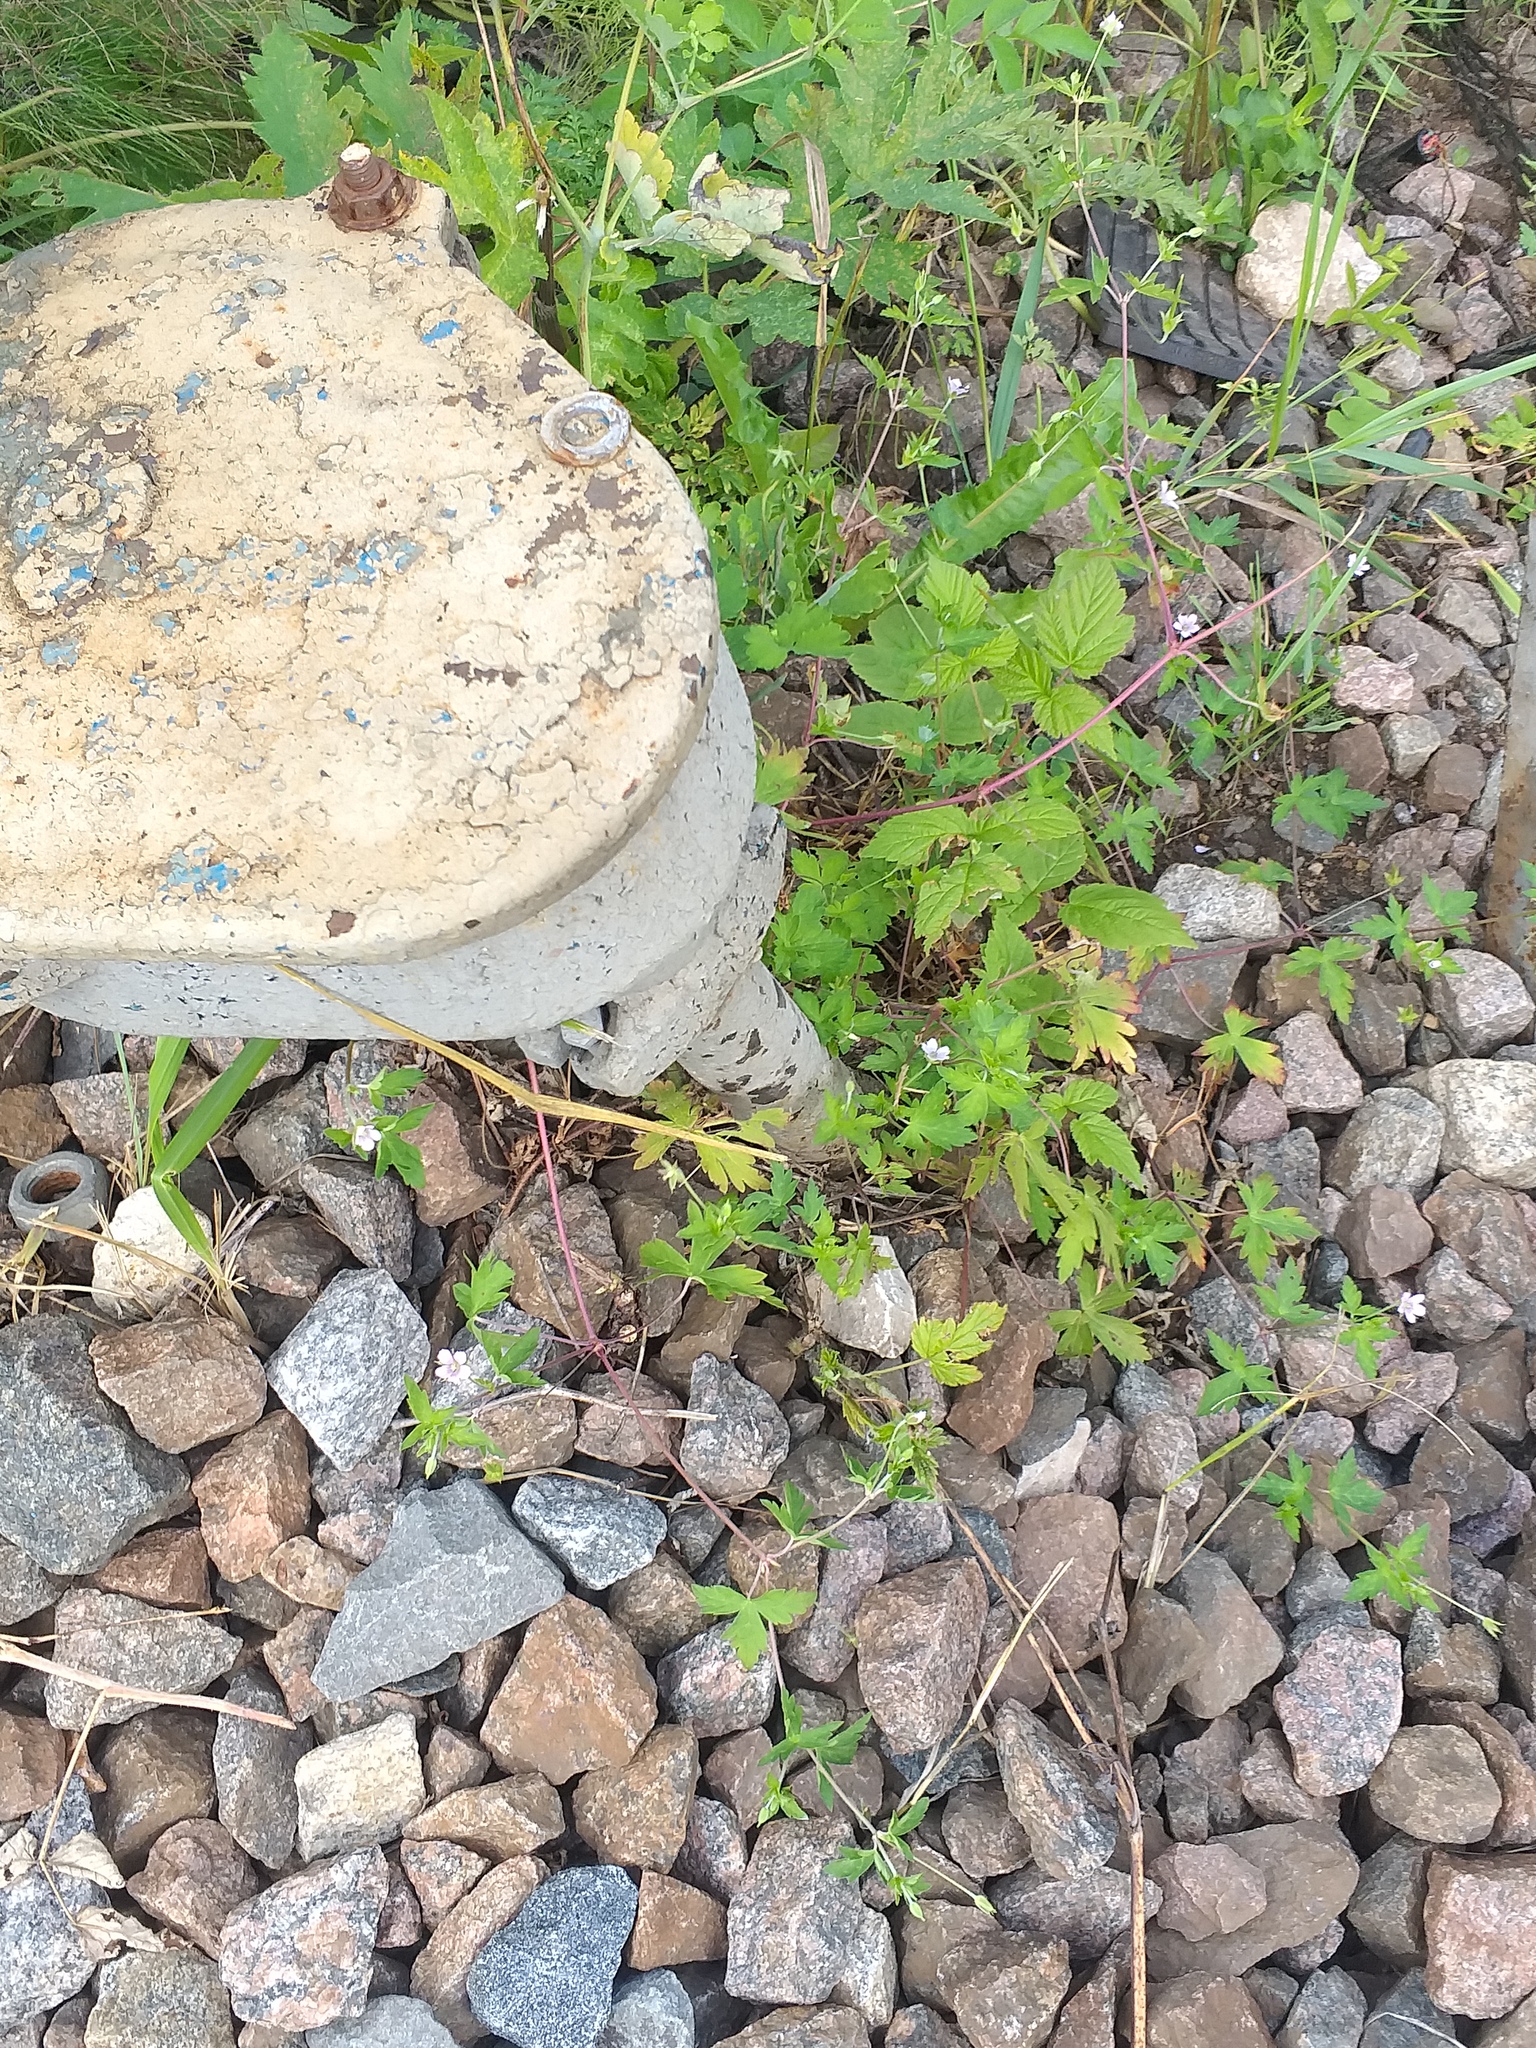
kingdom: Plantae
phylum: Tracheophyta
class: Magnoliopsida
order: Geraniales
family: Geraniaceae
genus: Geranium
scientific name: Geranium sibiricum
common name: Siberian crane's-bill
